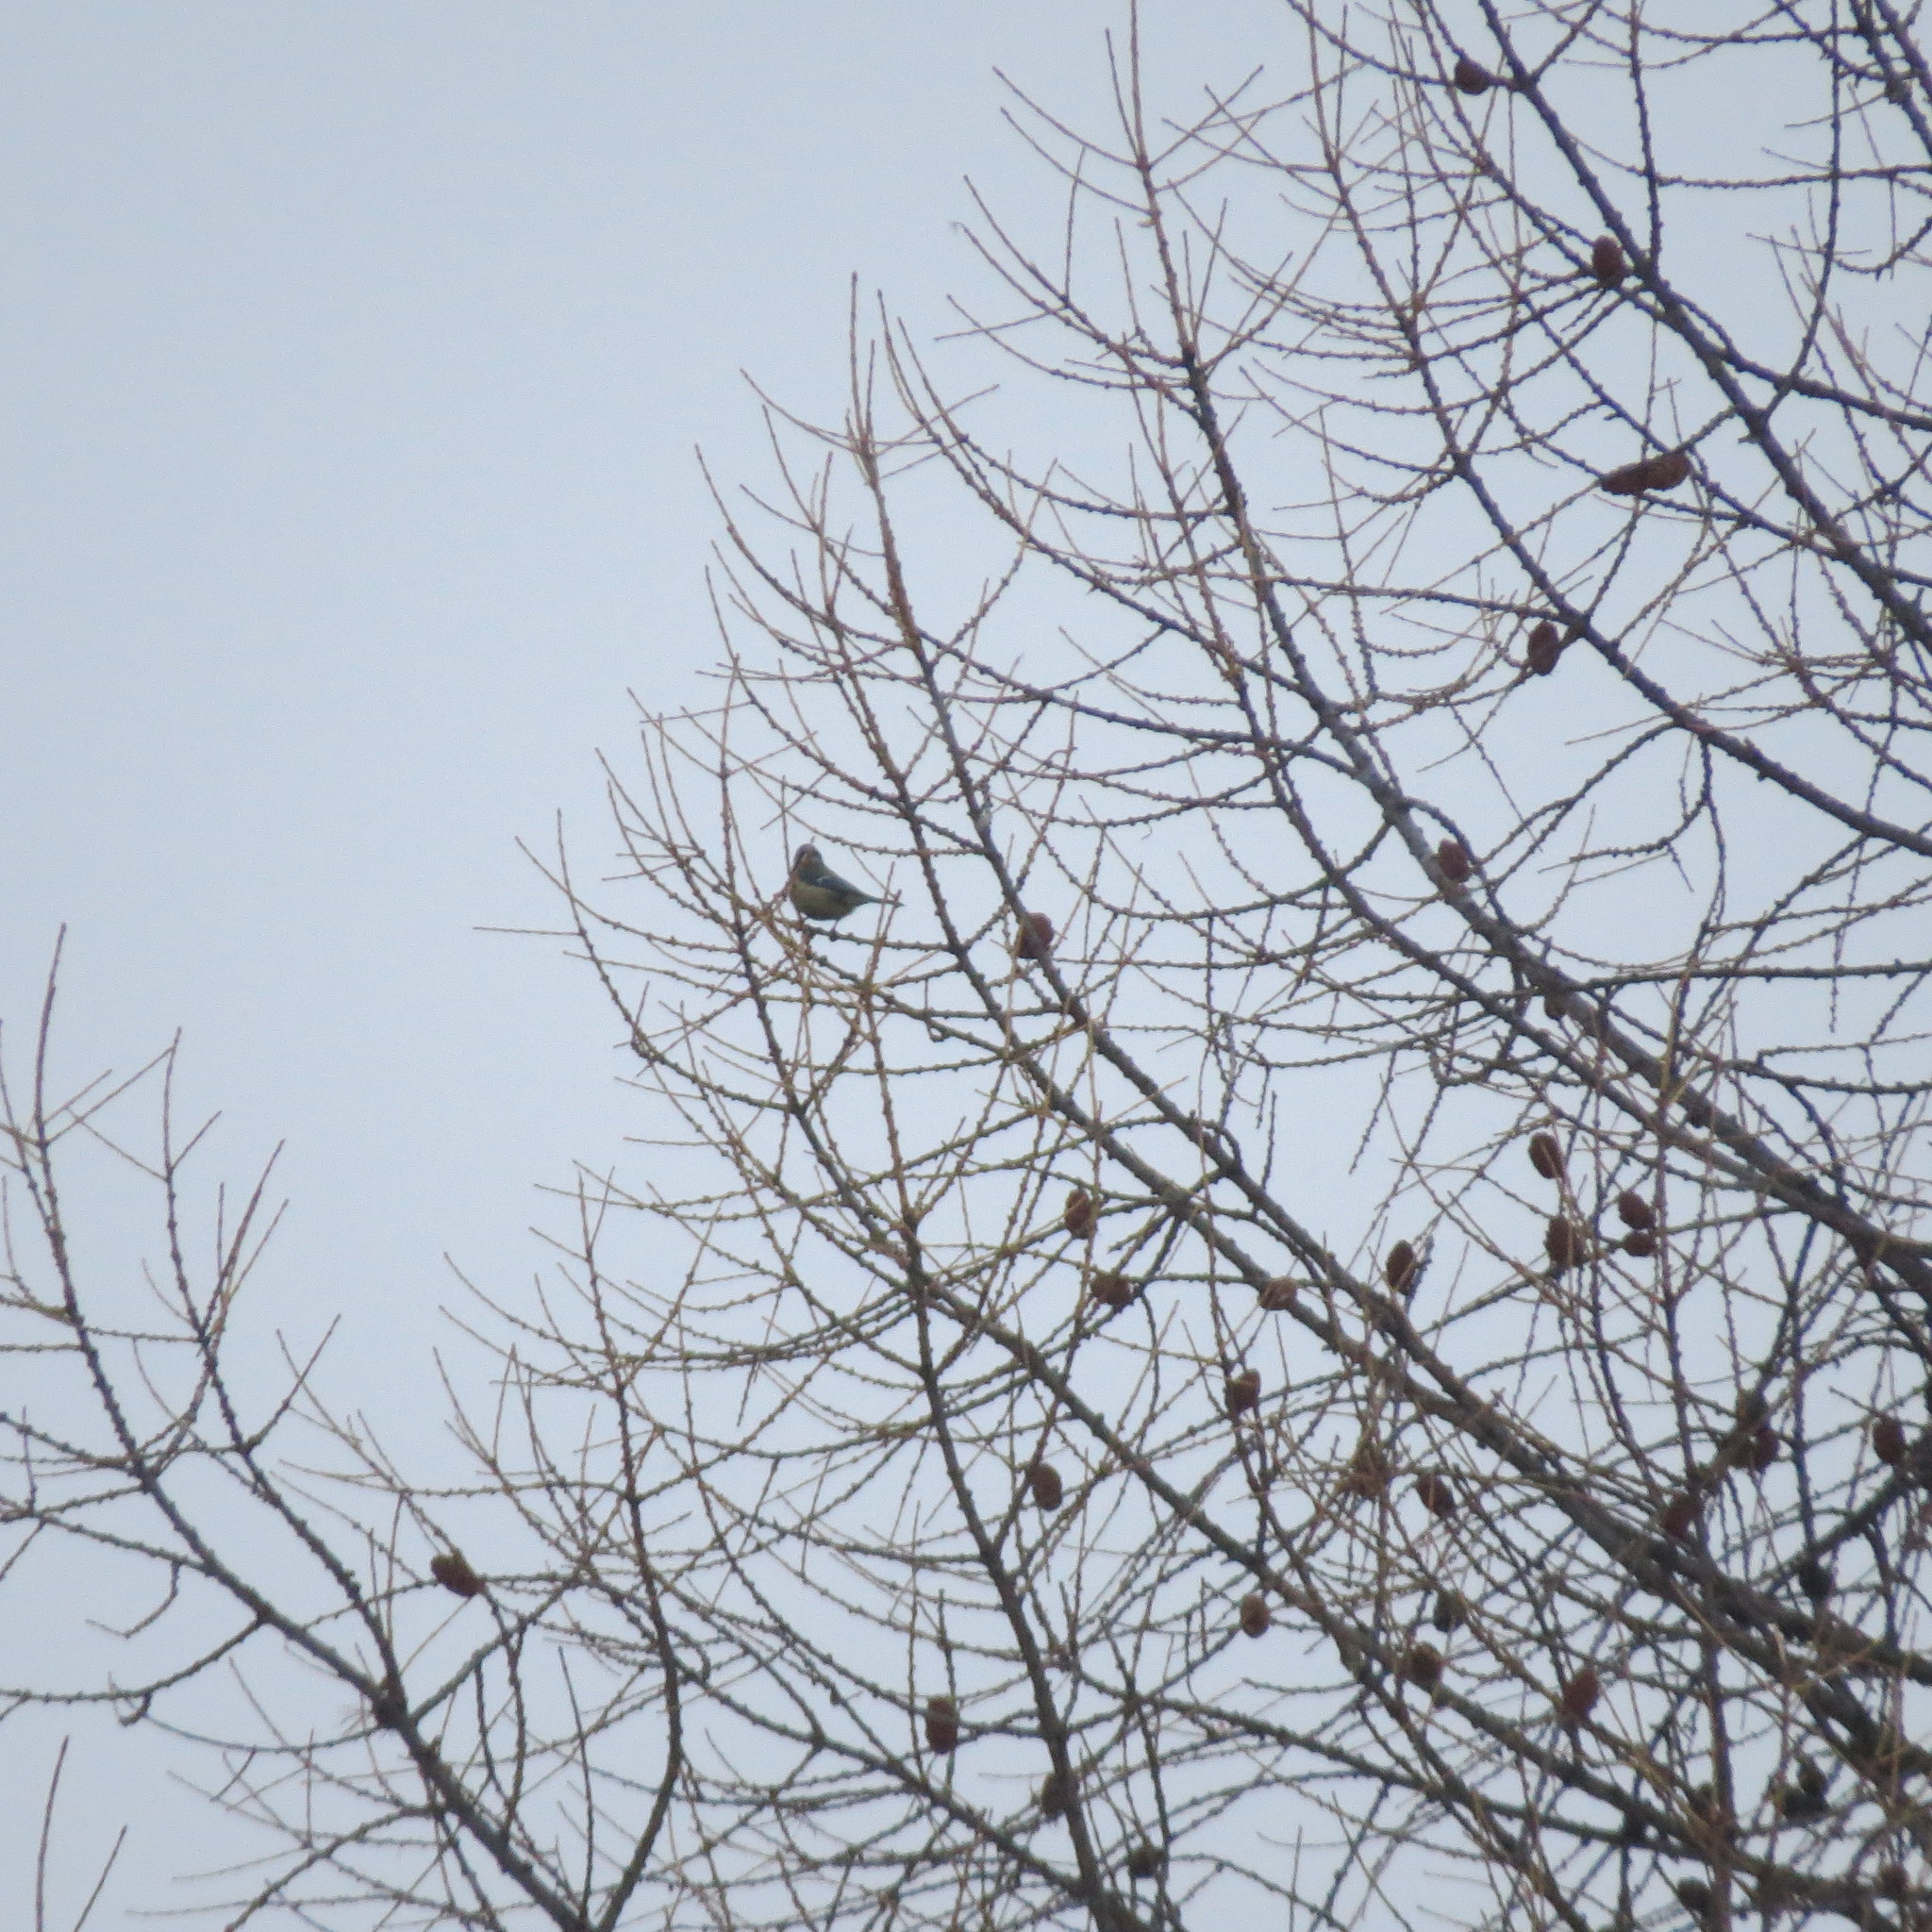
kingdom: Animalia
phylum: Chordata
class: Aves
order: Passeriformes
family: Paridae
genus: Cyanistes
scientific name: Cyanistes caeruleus
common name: Eurasian blue tit
